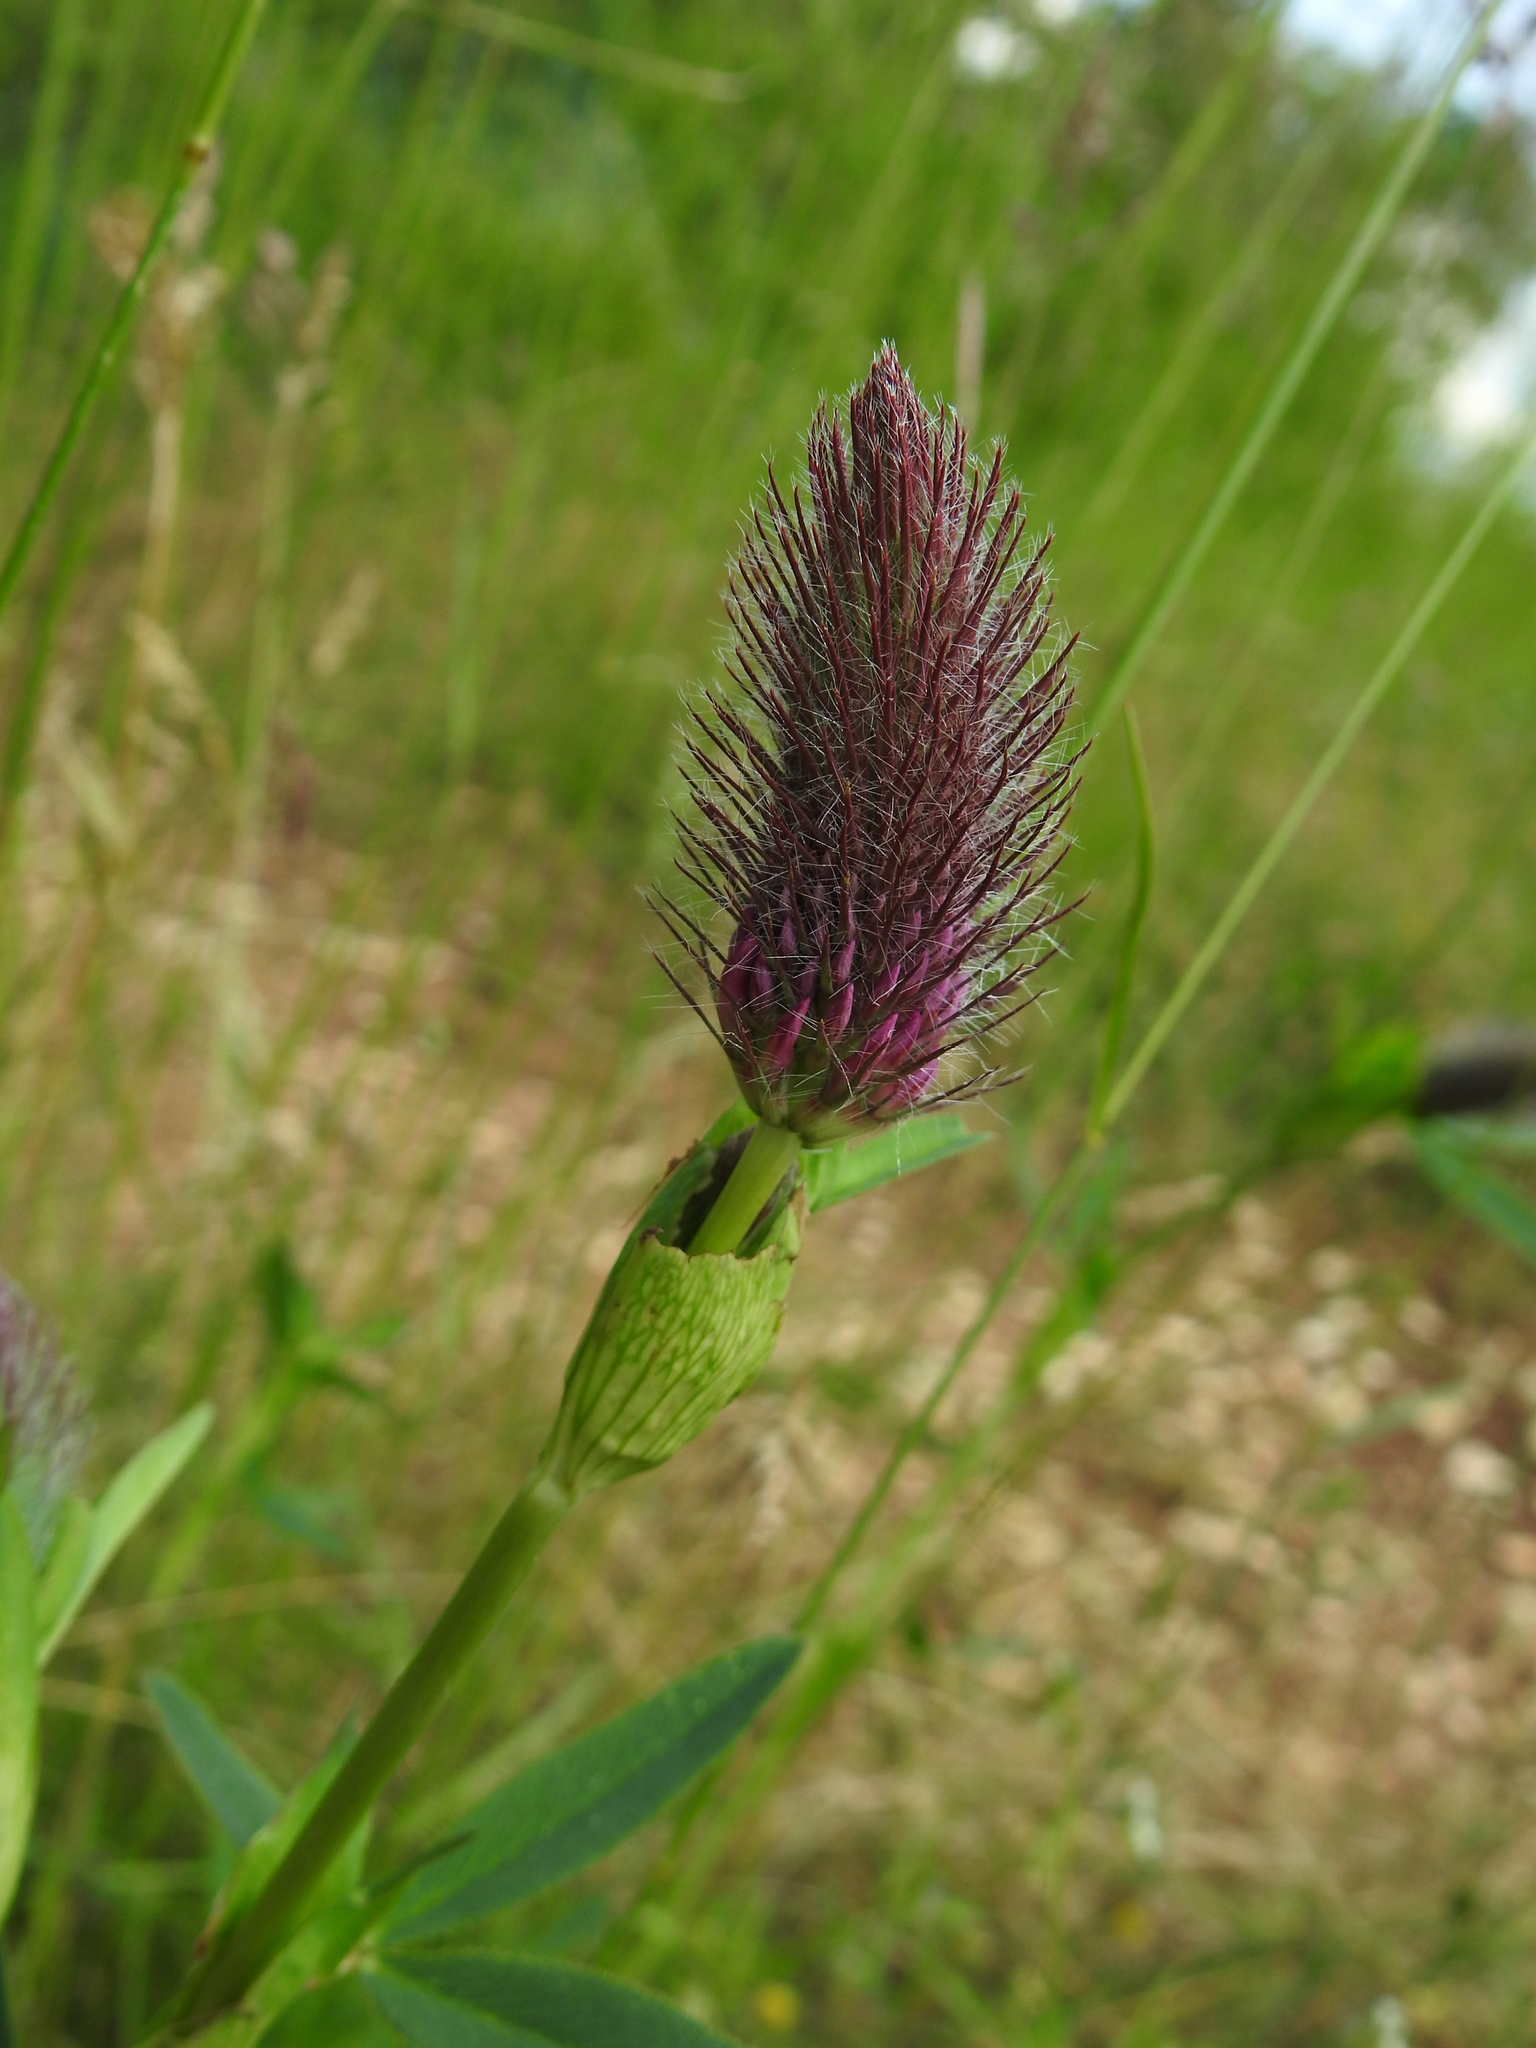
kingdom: Plantae
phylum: Tracheophyta
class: Magnoliopsida
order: Fabales
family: Fabaceae
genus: Trifolium
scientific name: Trifolium rubens
